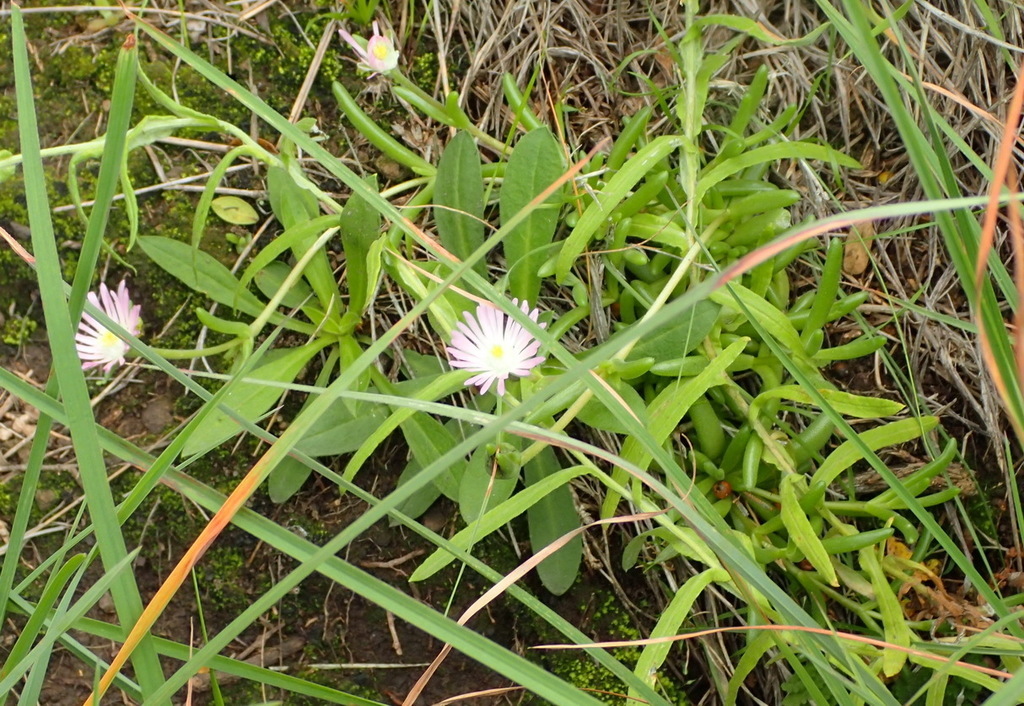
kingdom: Plantae
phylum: Tracheophyta
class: Magnoliopsida
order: Caryophyllales
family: Aizoaceae
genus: Delosperma
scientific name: Delosperma lootsbergense
